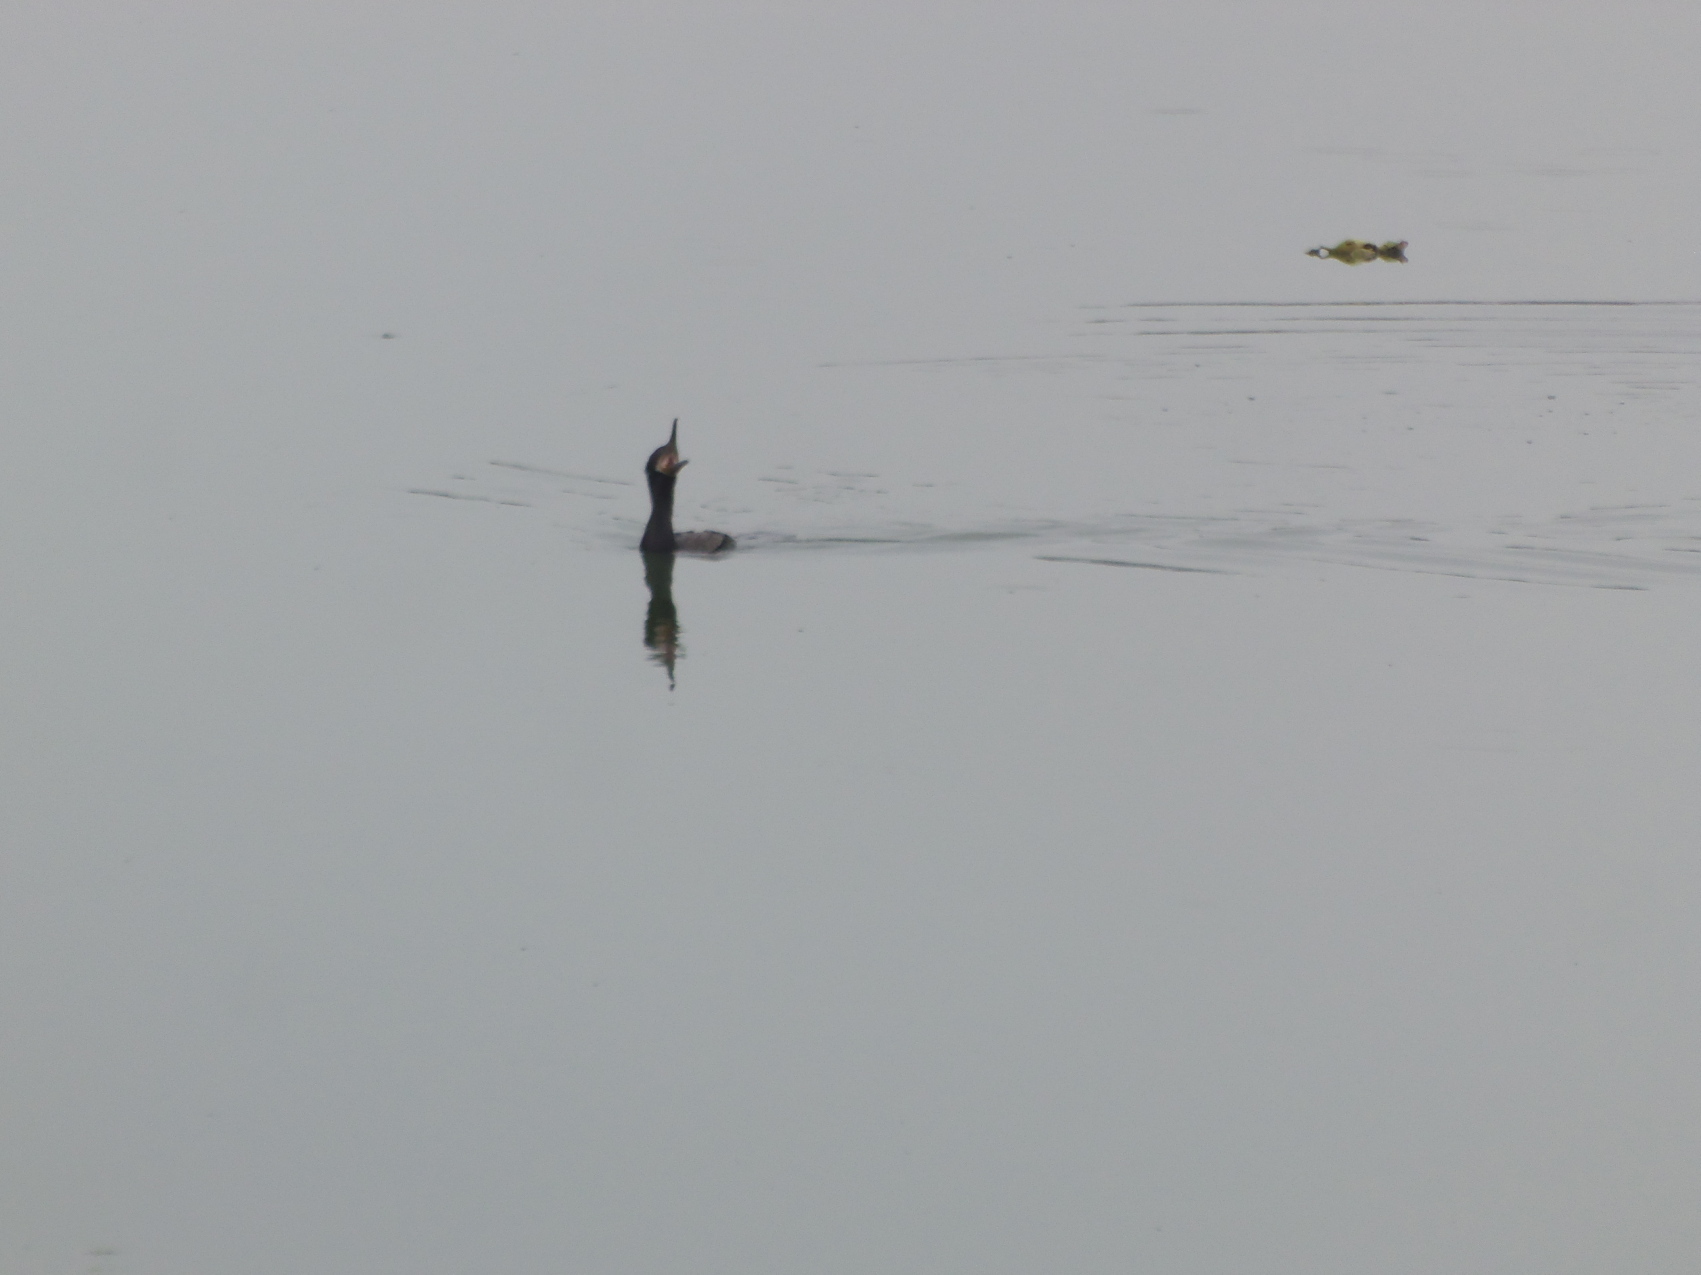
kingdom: Animalia
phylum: Chordata
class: Aves
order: Suliformes
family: Phalacrocoracidae
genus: Phalacrocorax
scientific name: Phalacrocorax brasilianus
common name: Neotropic cormorant
